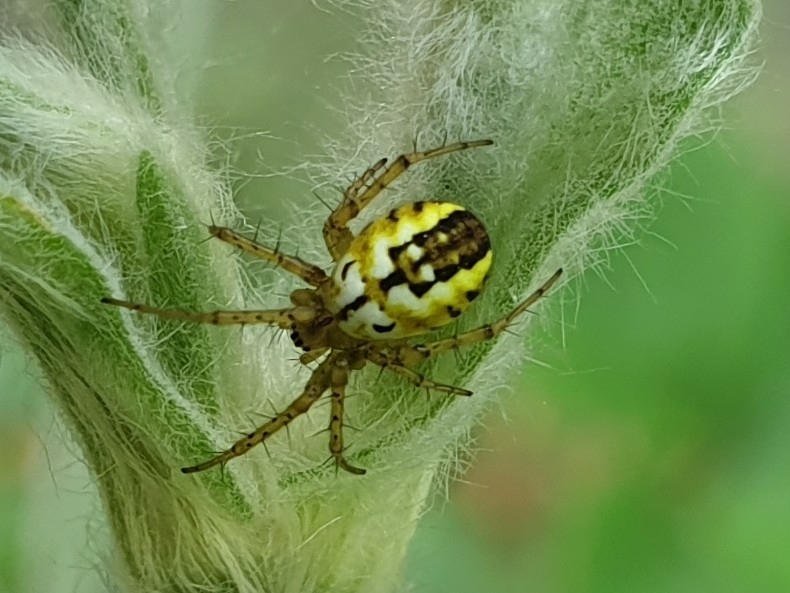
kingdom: Animalia
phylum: Arthropoda
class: Arachnida
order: Araneae
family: Araneidae
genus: Mangora
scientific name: Mangora acalypha
